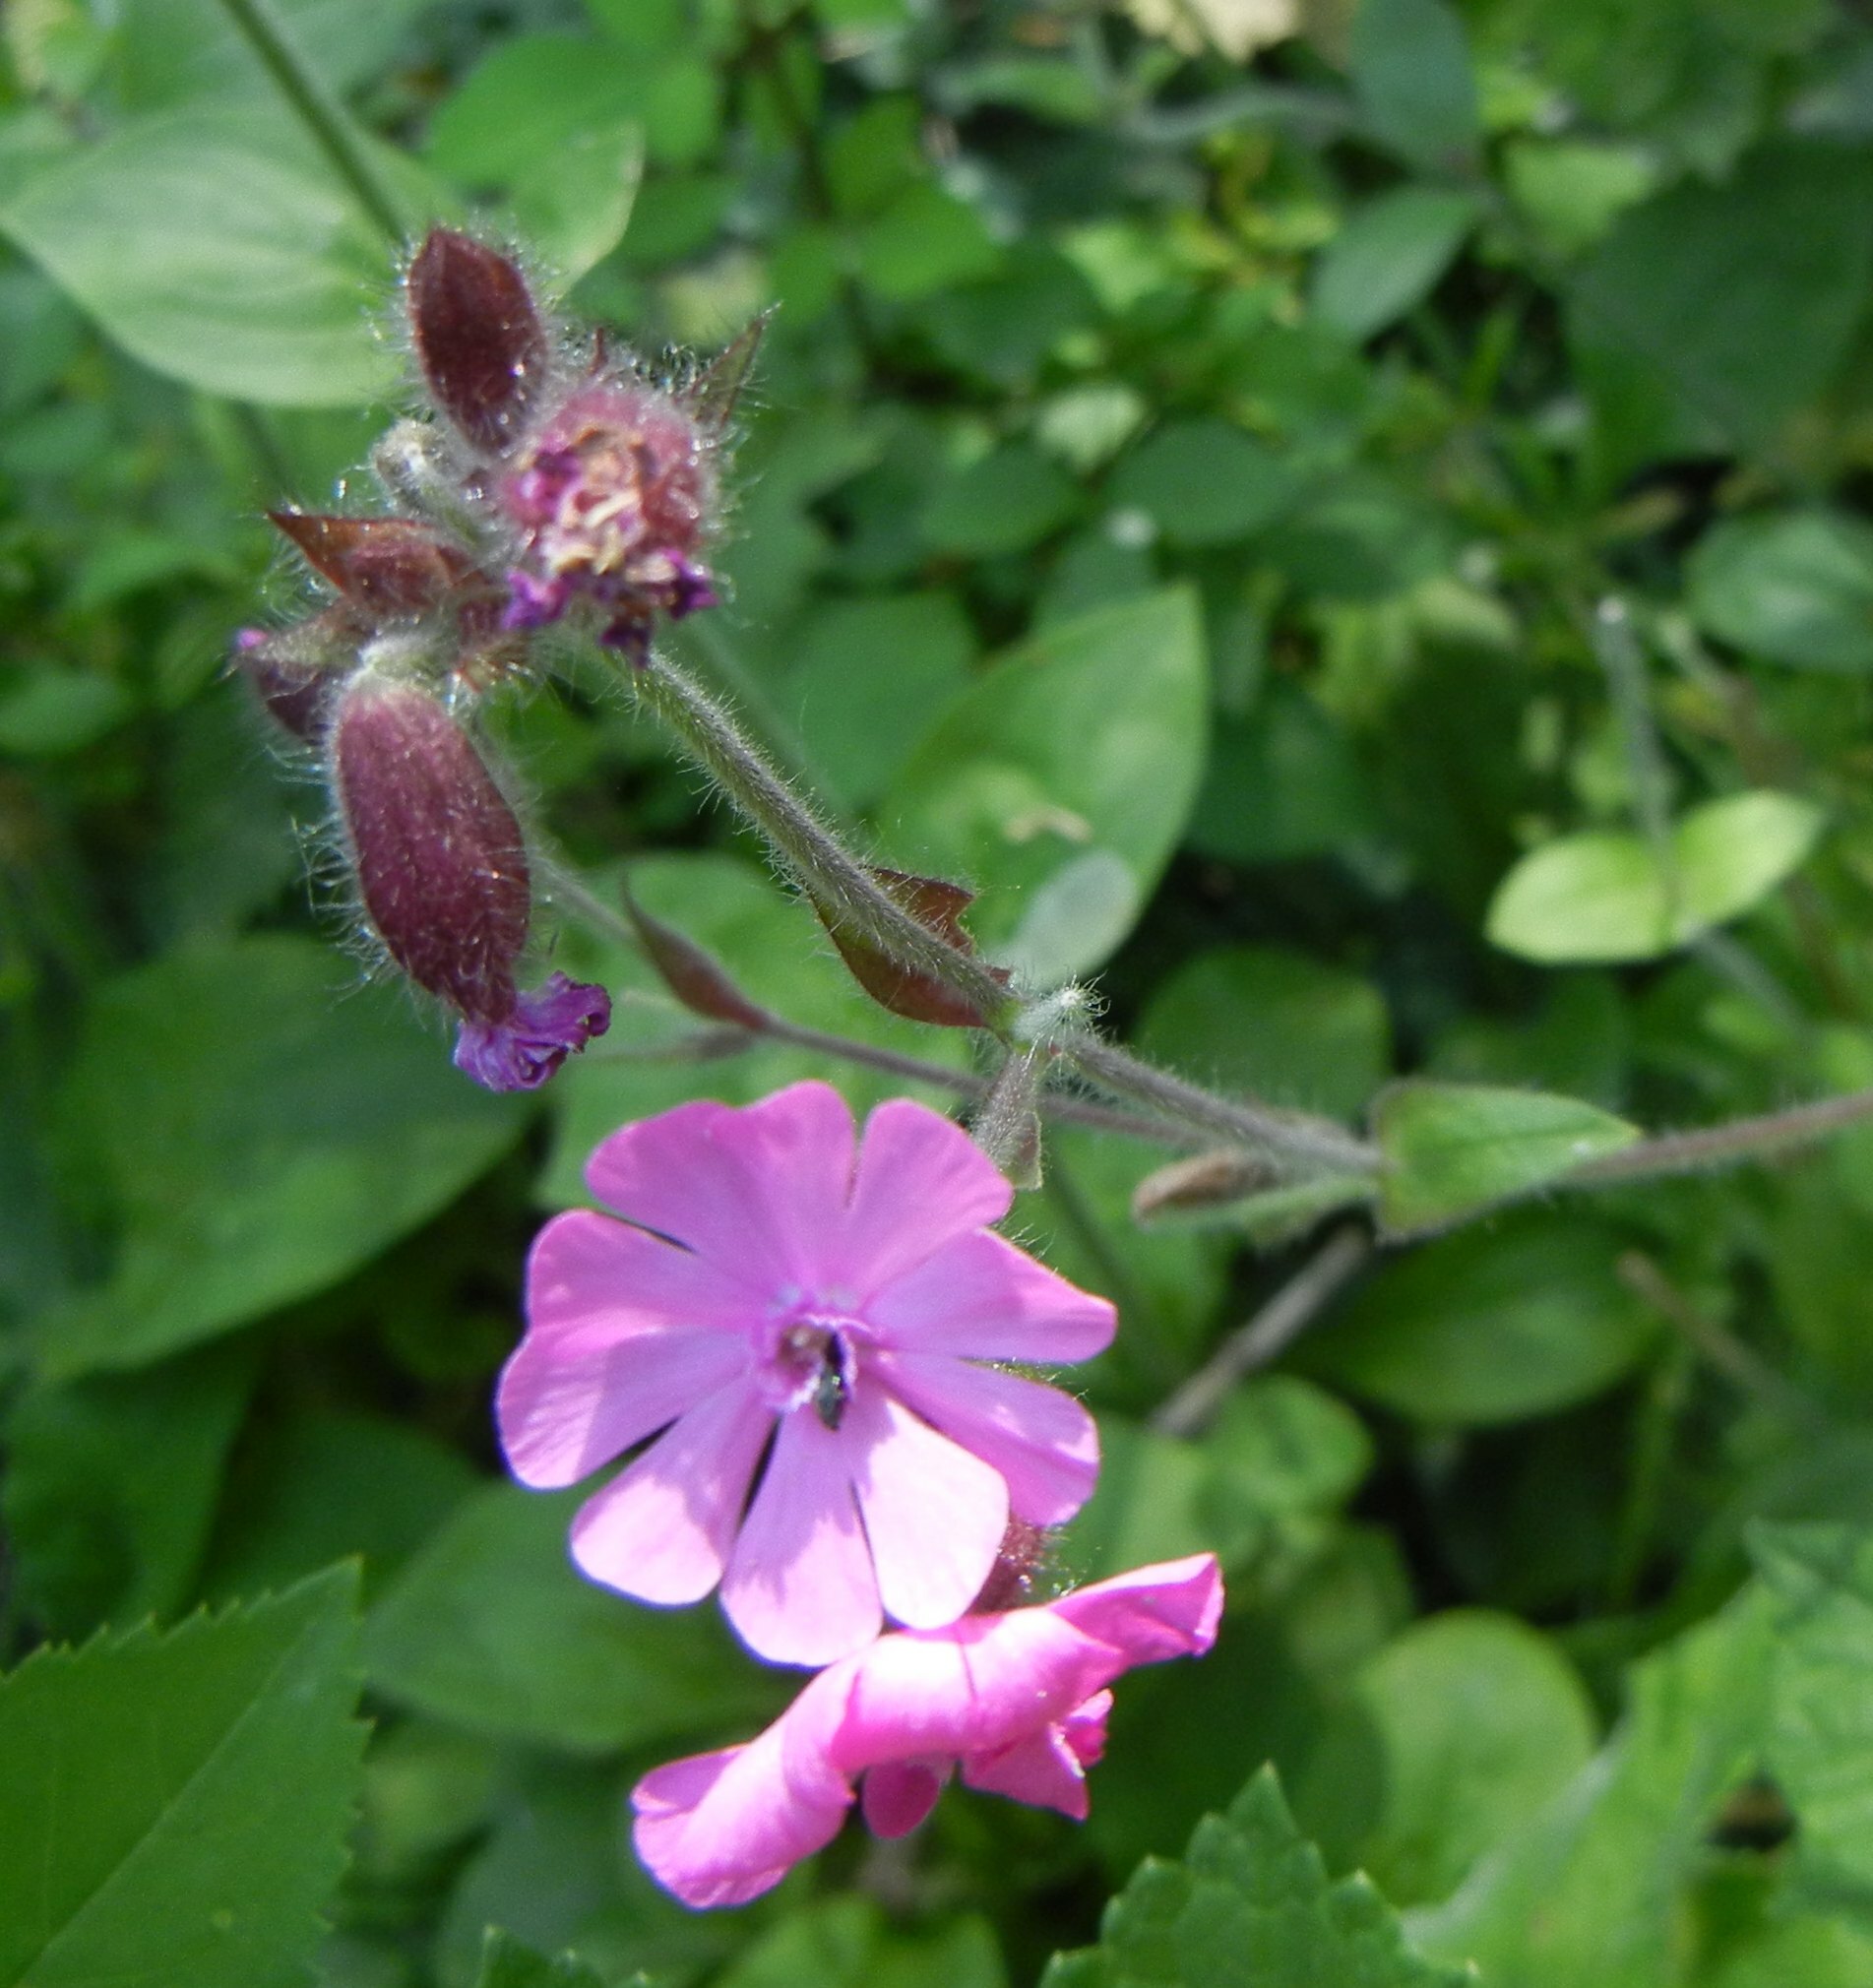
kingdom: Plantae
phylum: Tracheophyta
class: Magnoliopsida
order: Caryophyllales
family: Caryophyllaceae
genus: Silene
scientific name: Silene dioica
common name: Red campion
